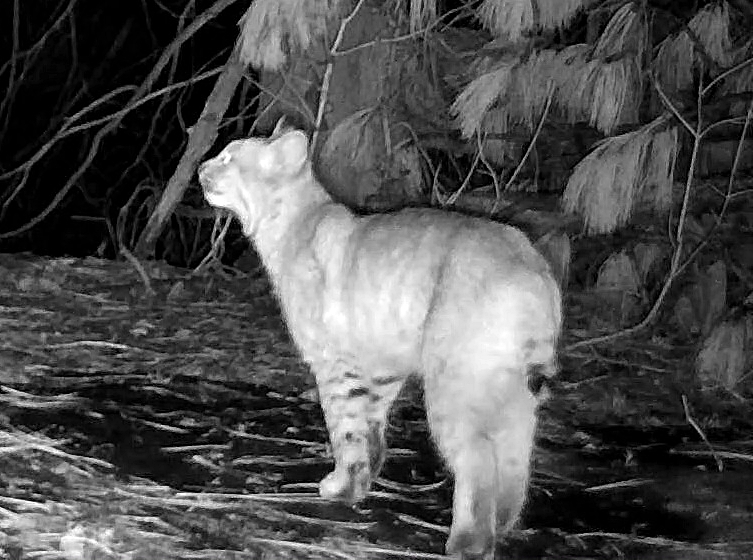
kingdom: Animalia
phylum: Chordata
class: Mammalia
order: Carnivora
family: Felidae
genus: Lynx
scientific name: Lynx rufus
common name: Bobcat
